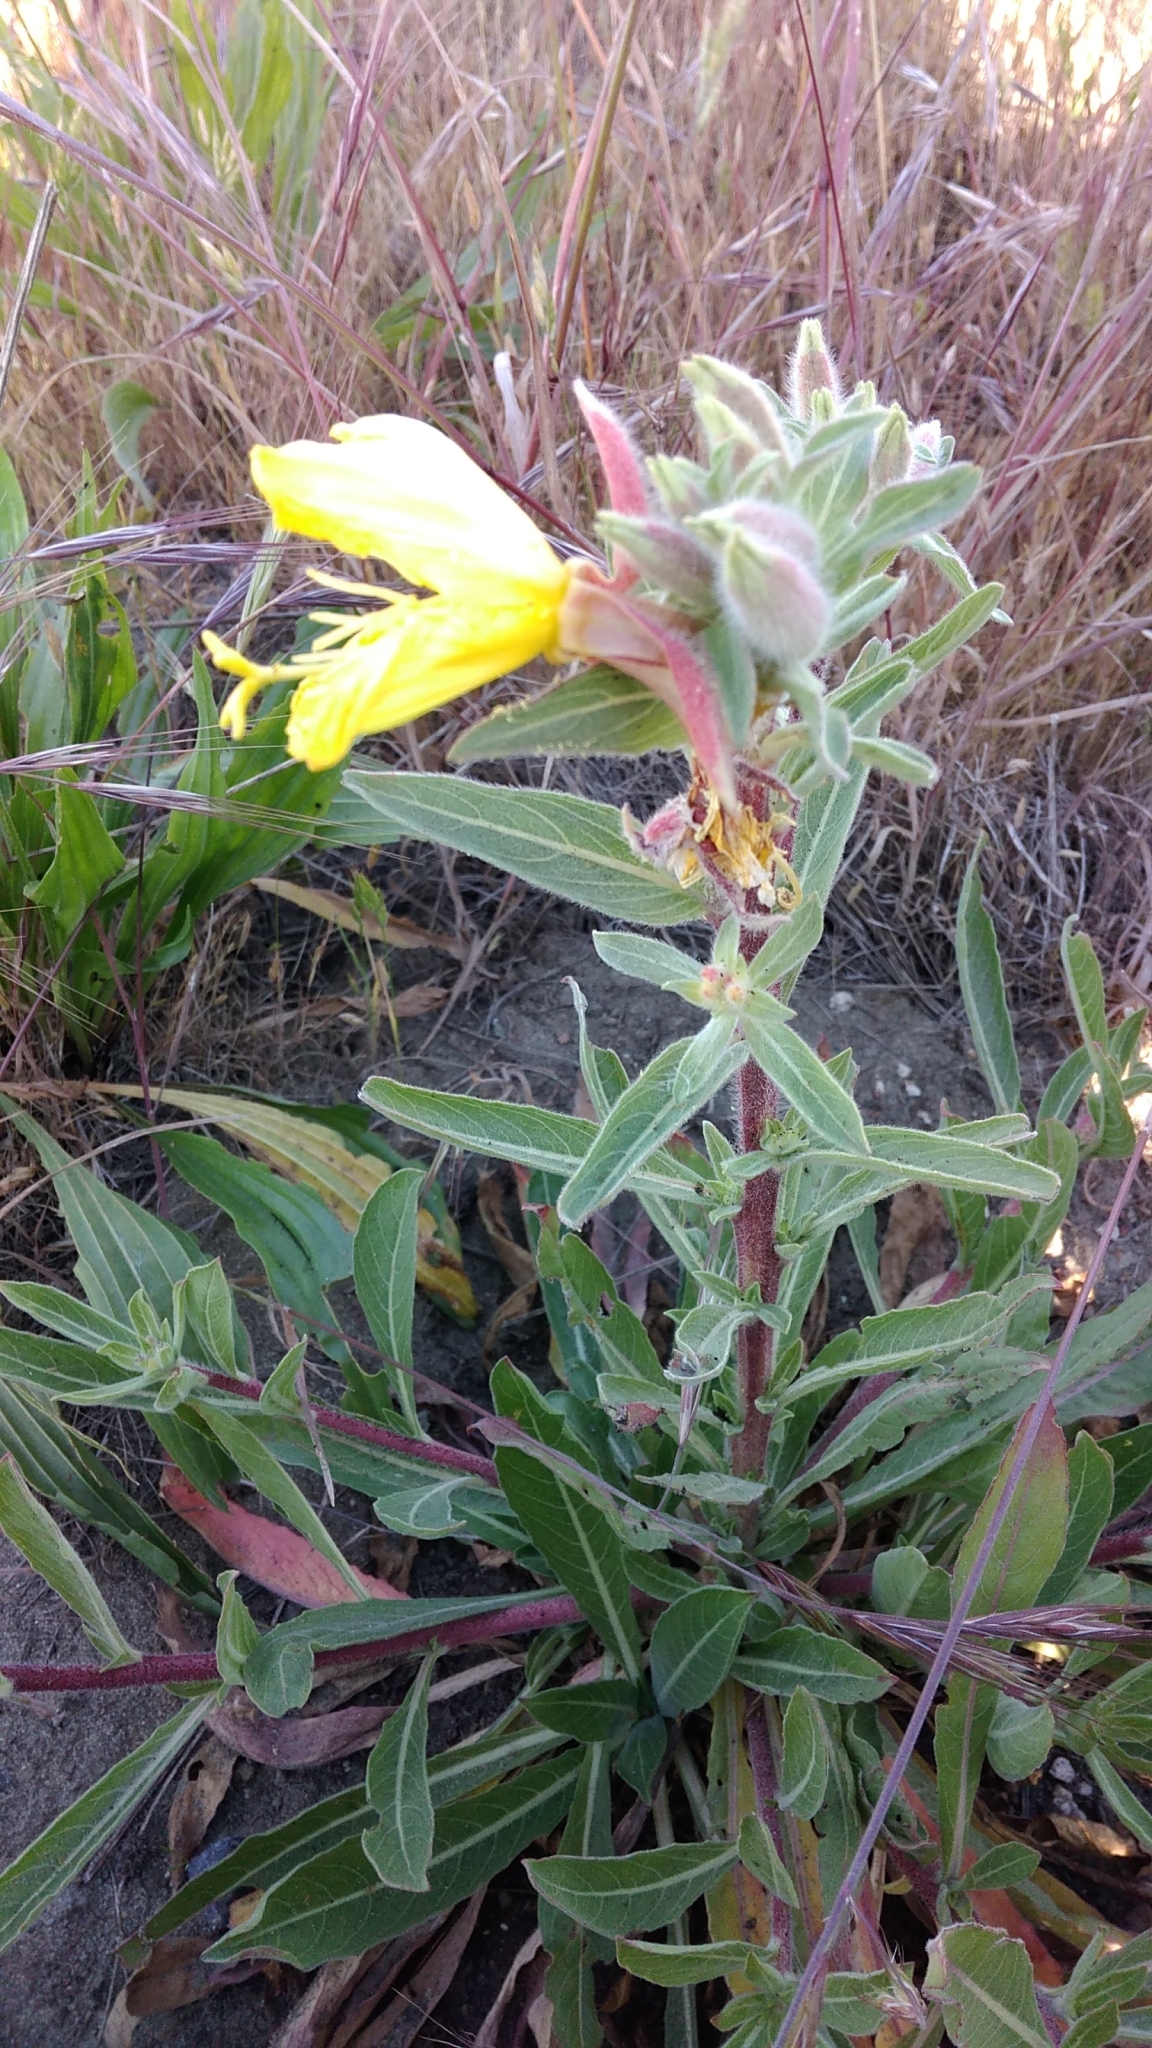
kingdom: Plantae
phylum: Tracheophyta
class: Magnoliopsida
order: Myrtales
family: Onagraceae
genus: Oenothera
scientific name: Oenothera elata
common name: Hooker's evening-primrose
